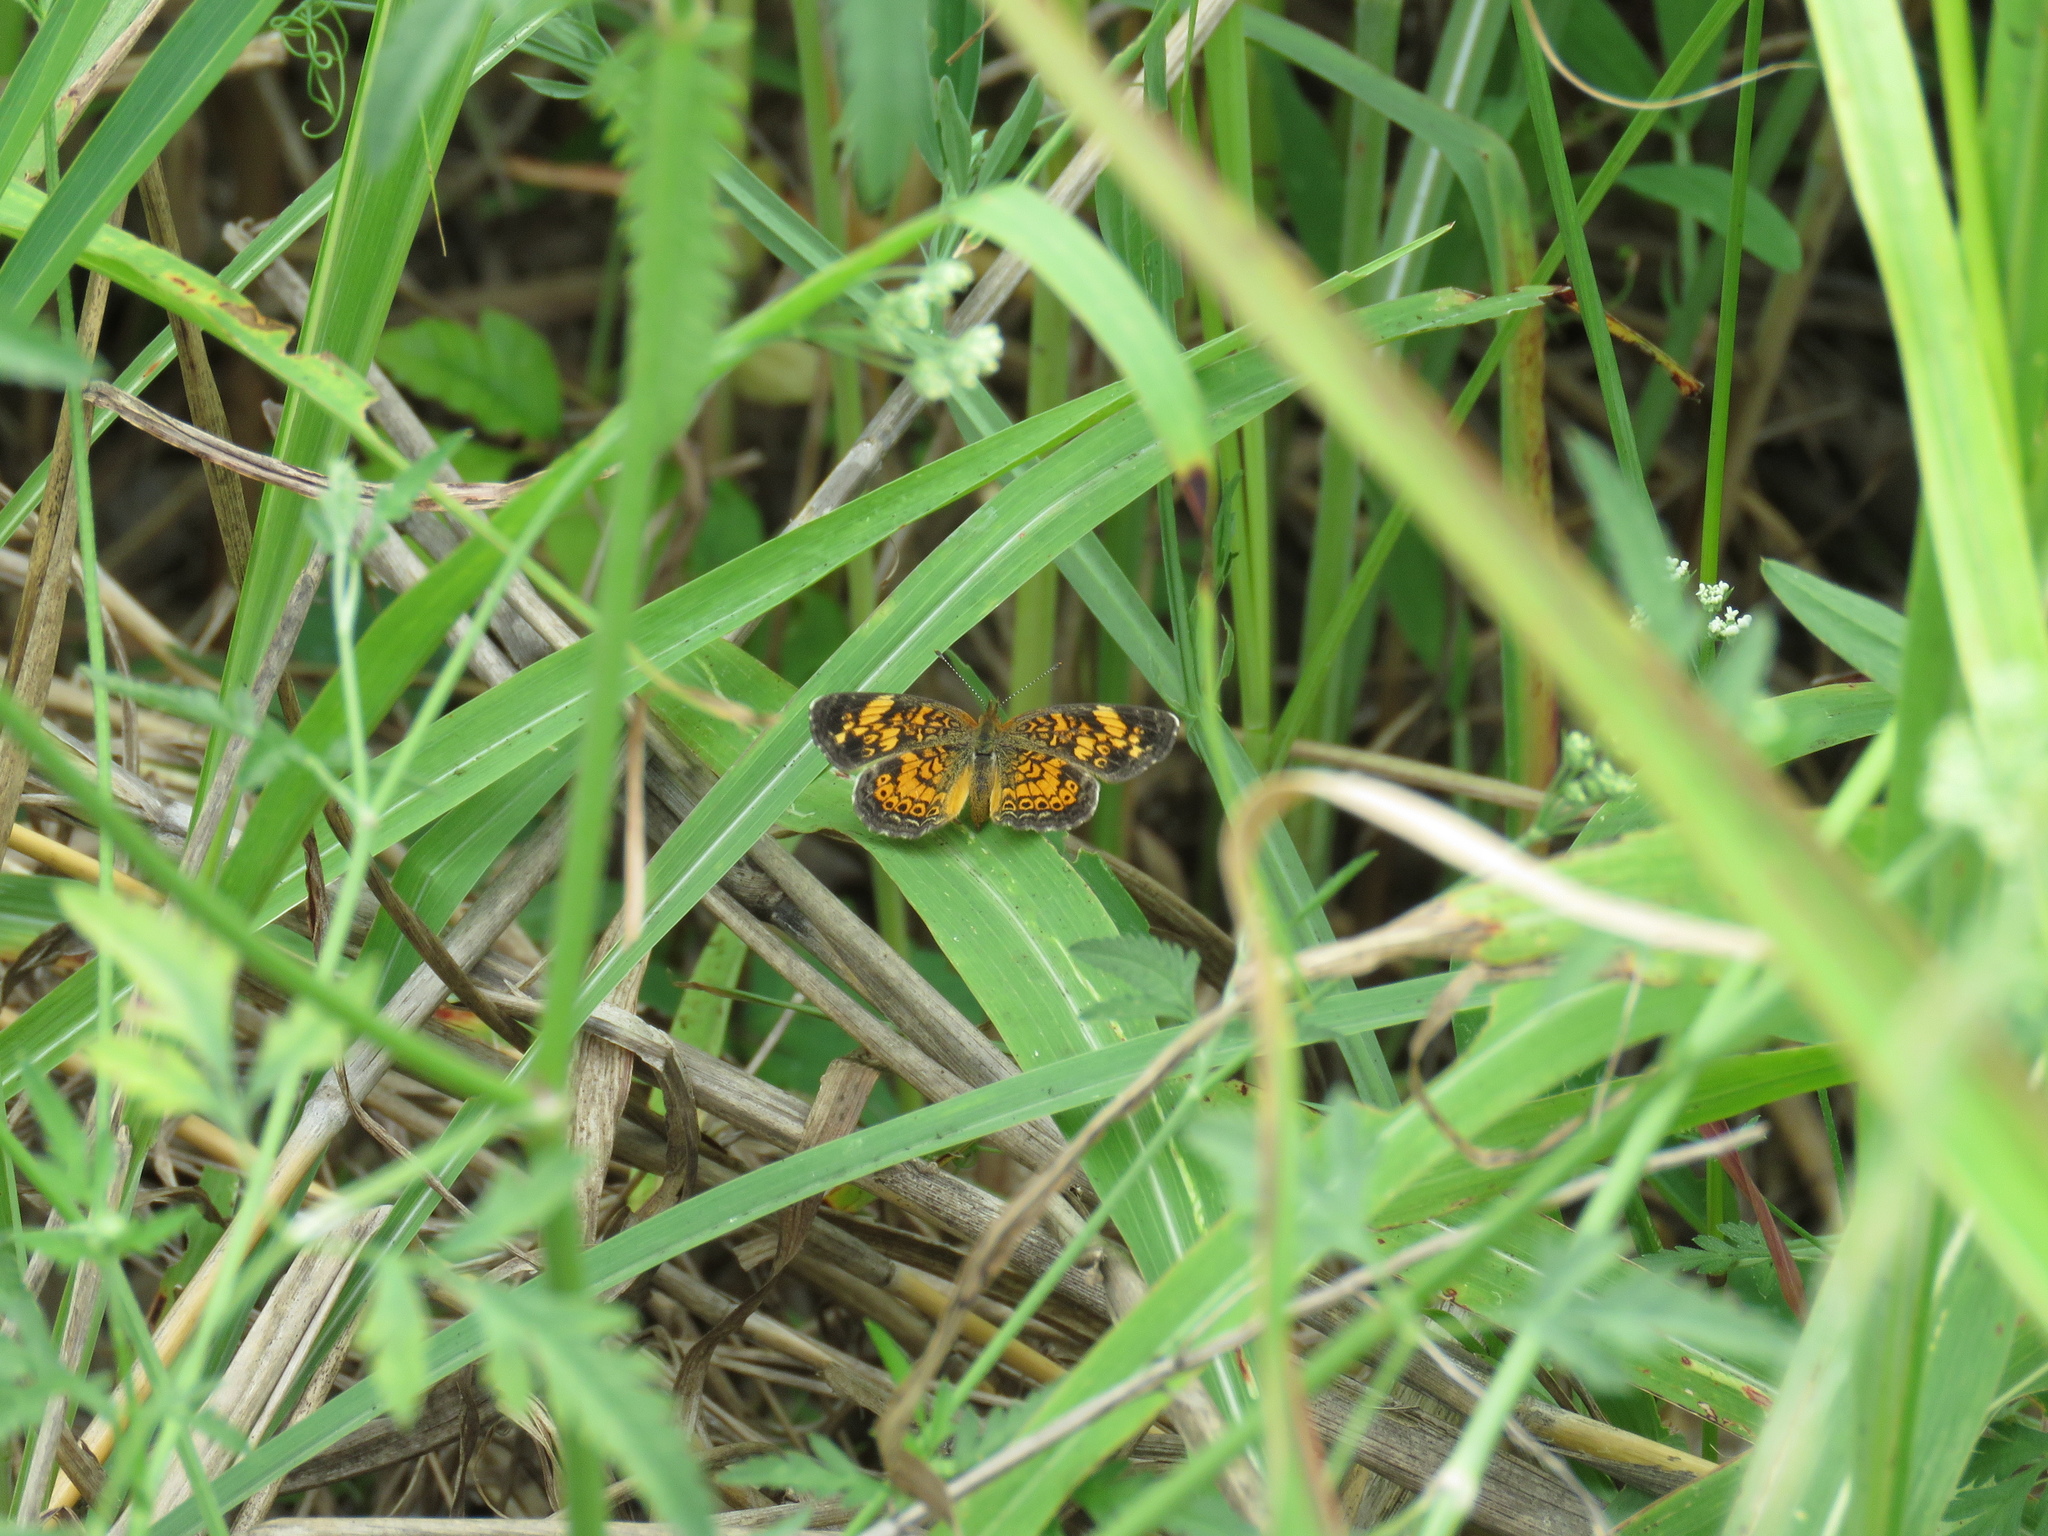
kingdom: Animalia
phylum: Arthropoda
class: Insecta
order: Lepidoptera
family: Nymphalidae
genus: Phyciodes
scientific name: Phyciodes tharos
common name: Pearl crescent
